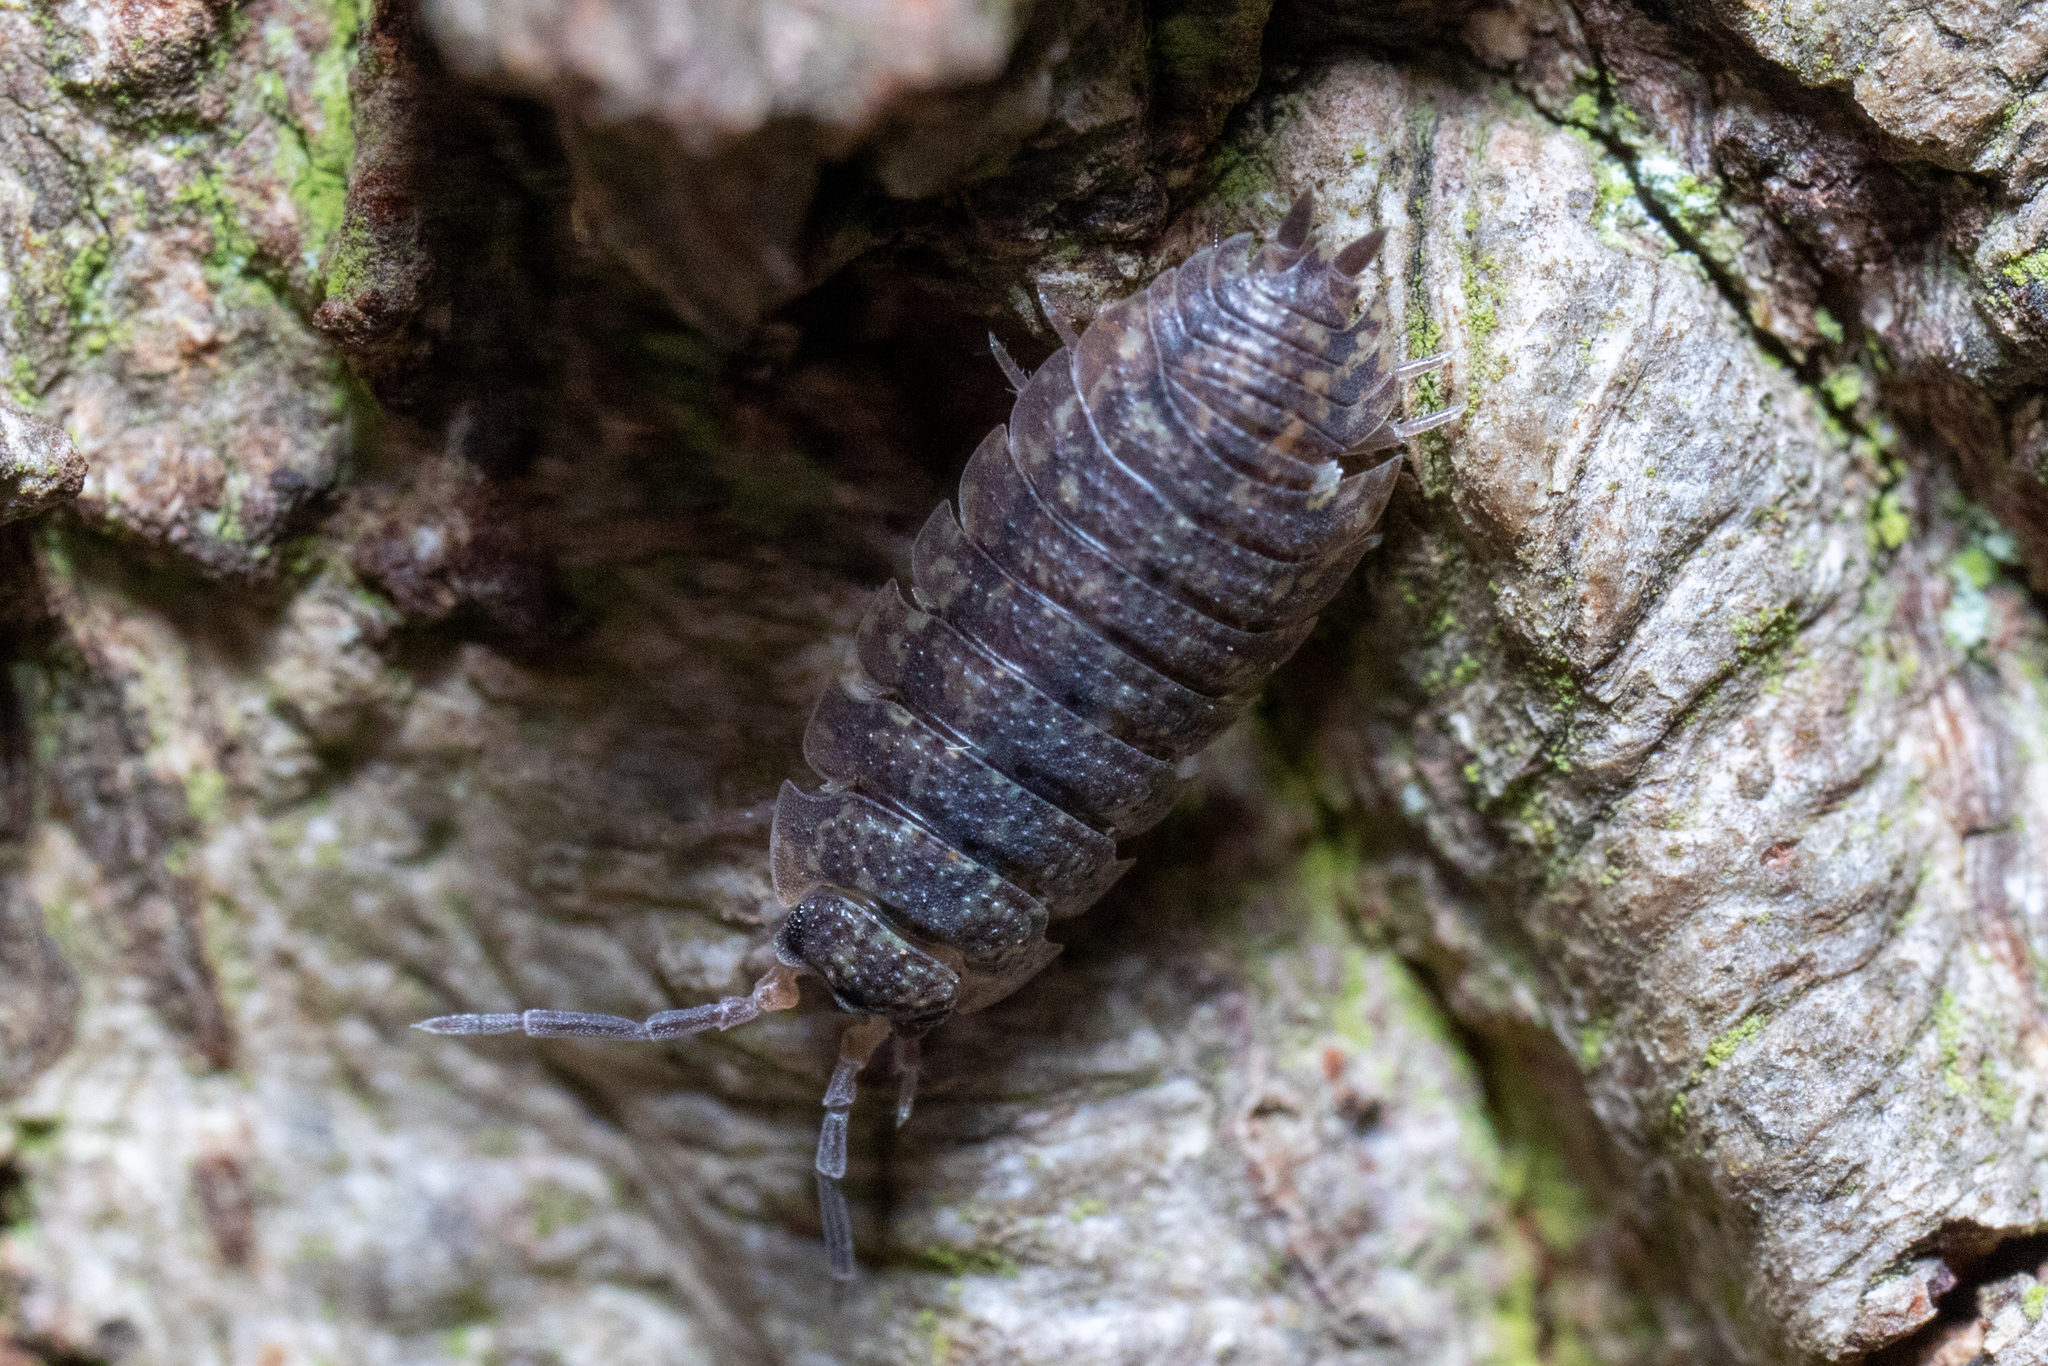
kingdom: Animalia
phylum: Arthropoda
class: Malacostraca
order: Isopoda
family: Porcellionidae
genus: Porcellio
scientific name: Porcellio scaber
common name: Common rough woodlouse
